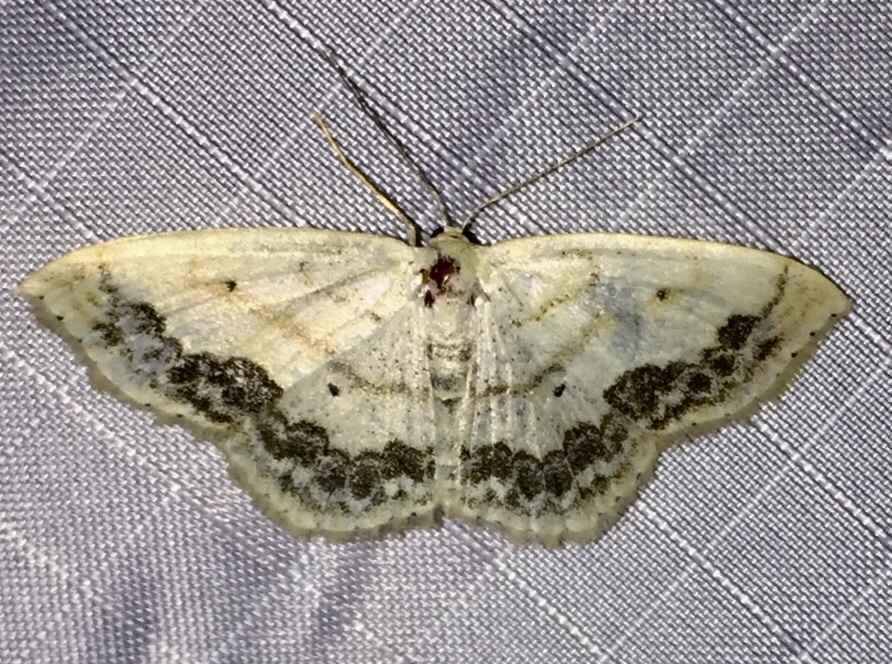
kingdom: Animalia
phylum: Arthropoda
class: Insecta
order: Lepidoptera
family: Geometridae
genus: Scopula
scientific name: Scopula limboundata
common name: Large lace border
